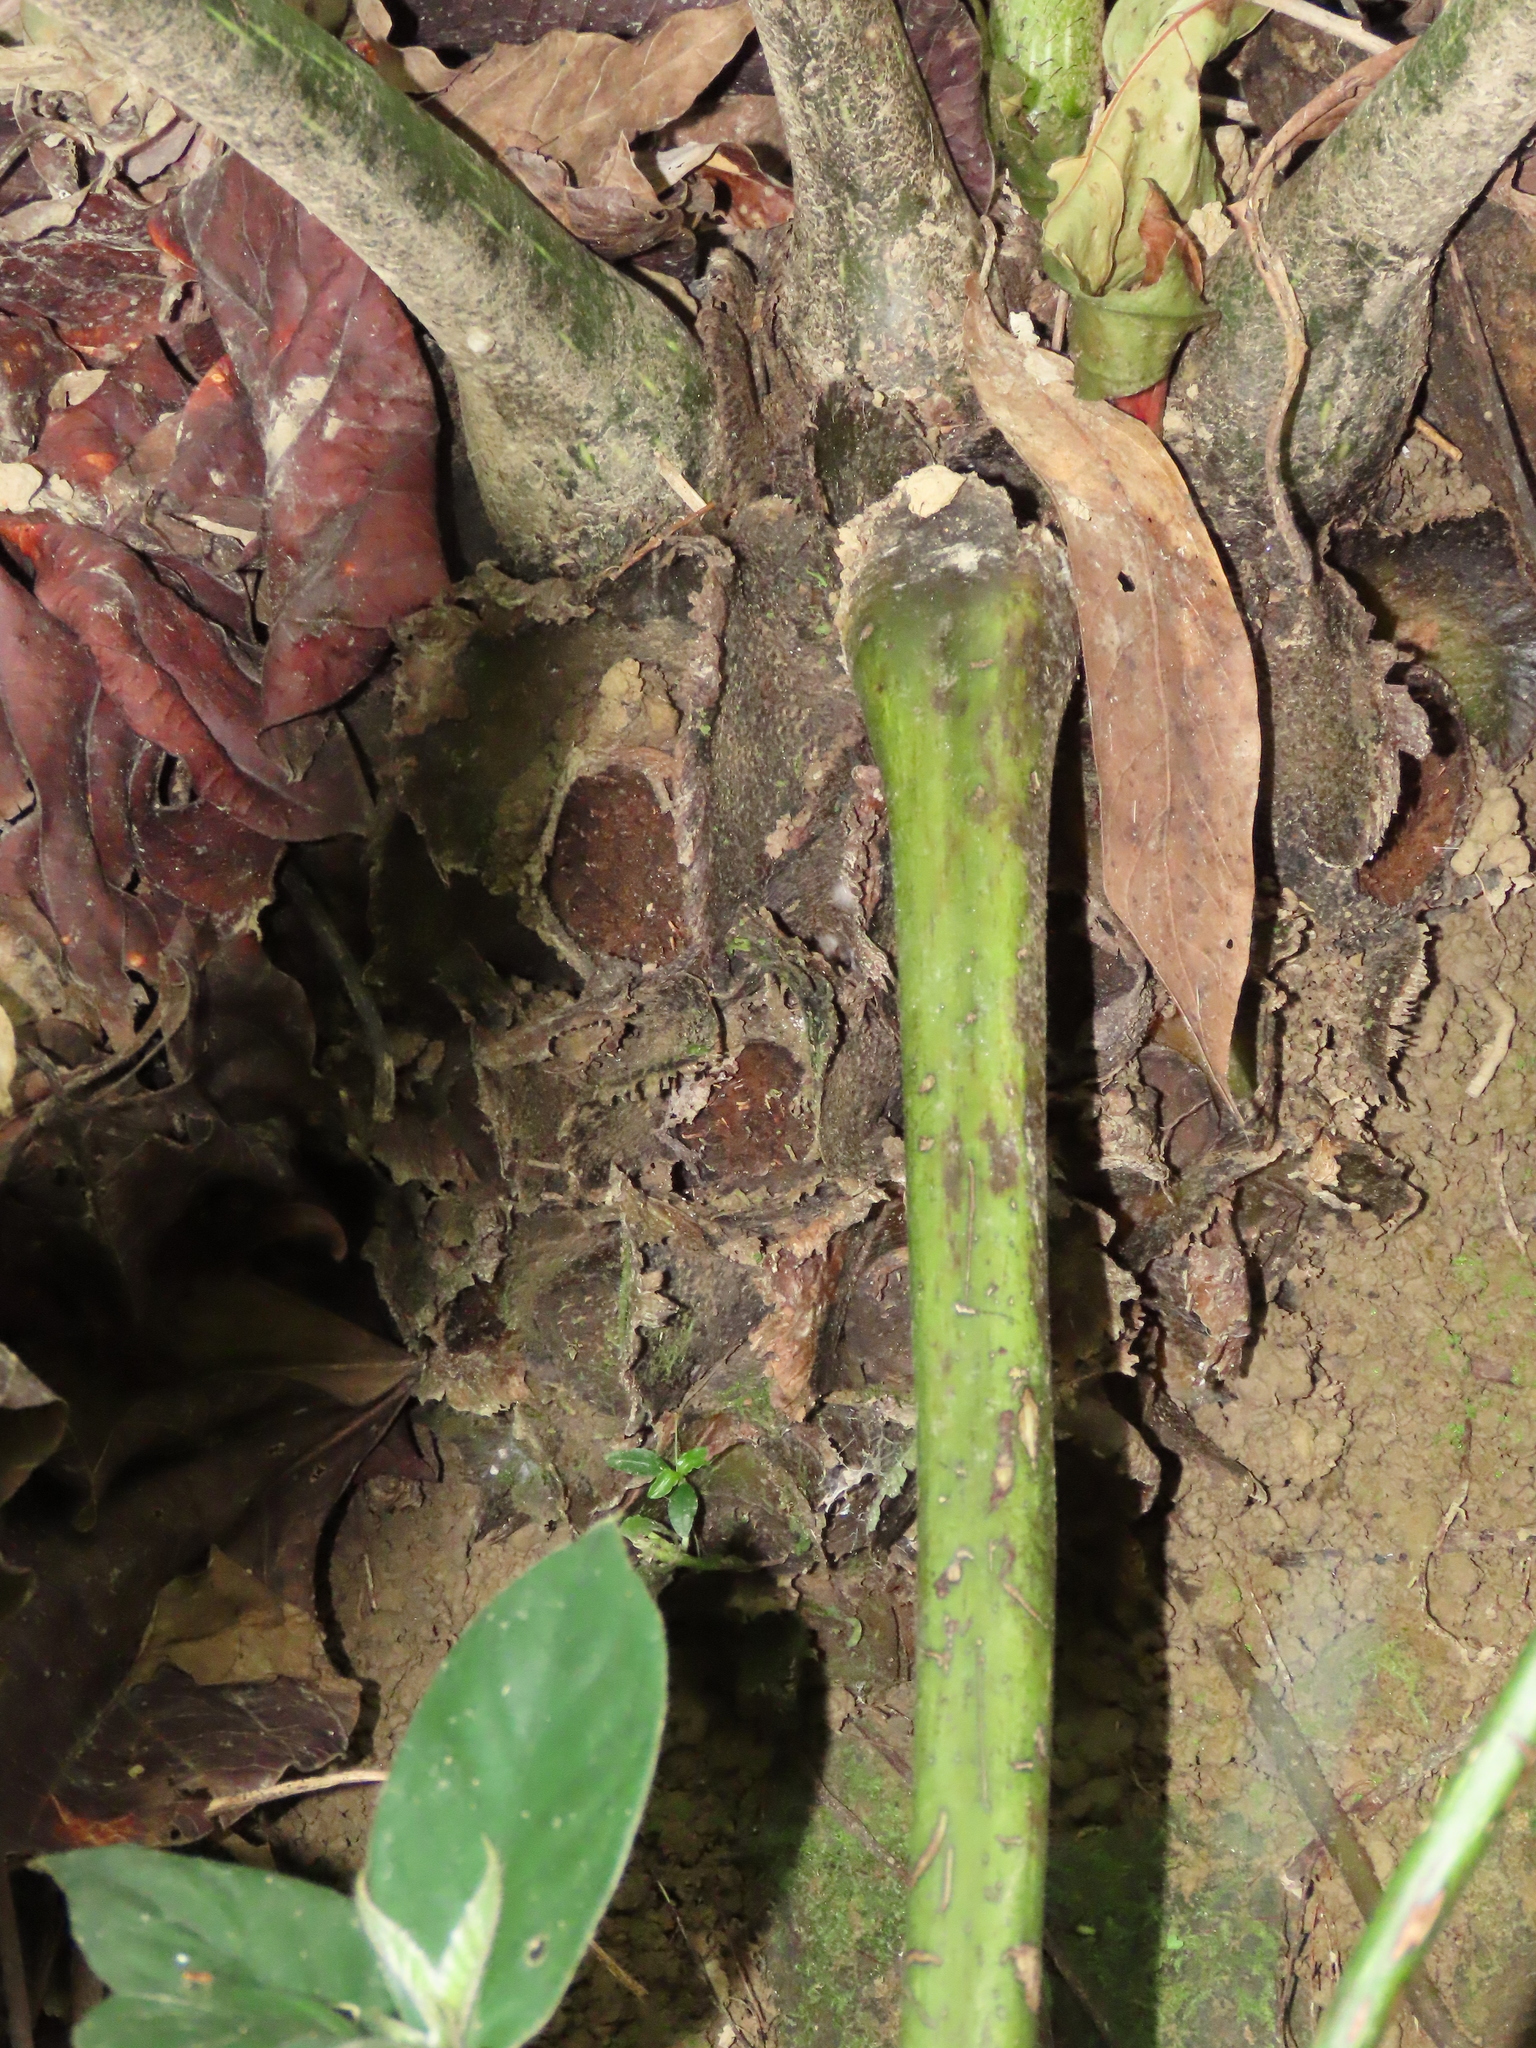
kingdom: Plantae
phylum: Tracheophyta
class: Polypodiopsida
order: Marattiales
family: Marattiaceae
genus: Angiopteris
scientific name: Angiopteris lygodiifolia
